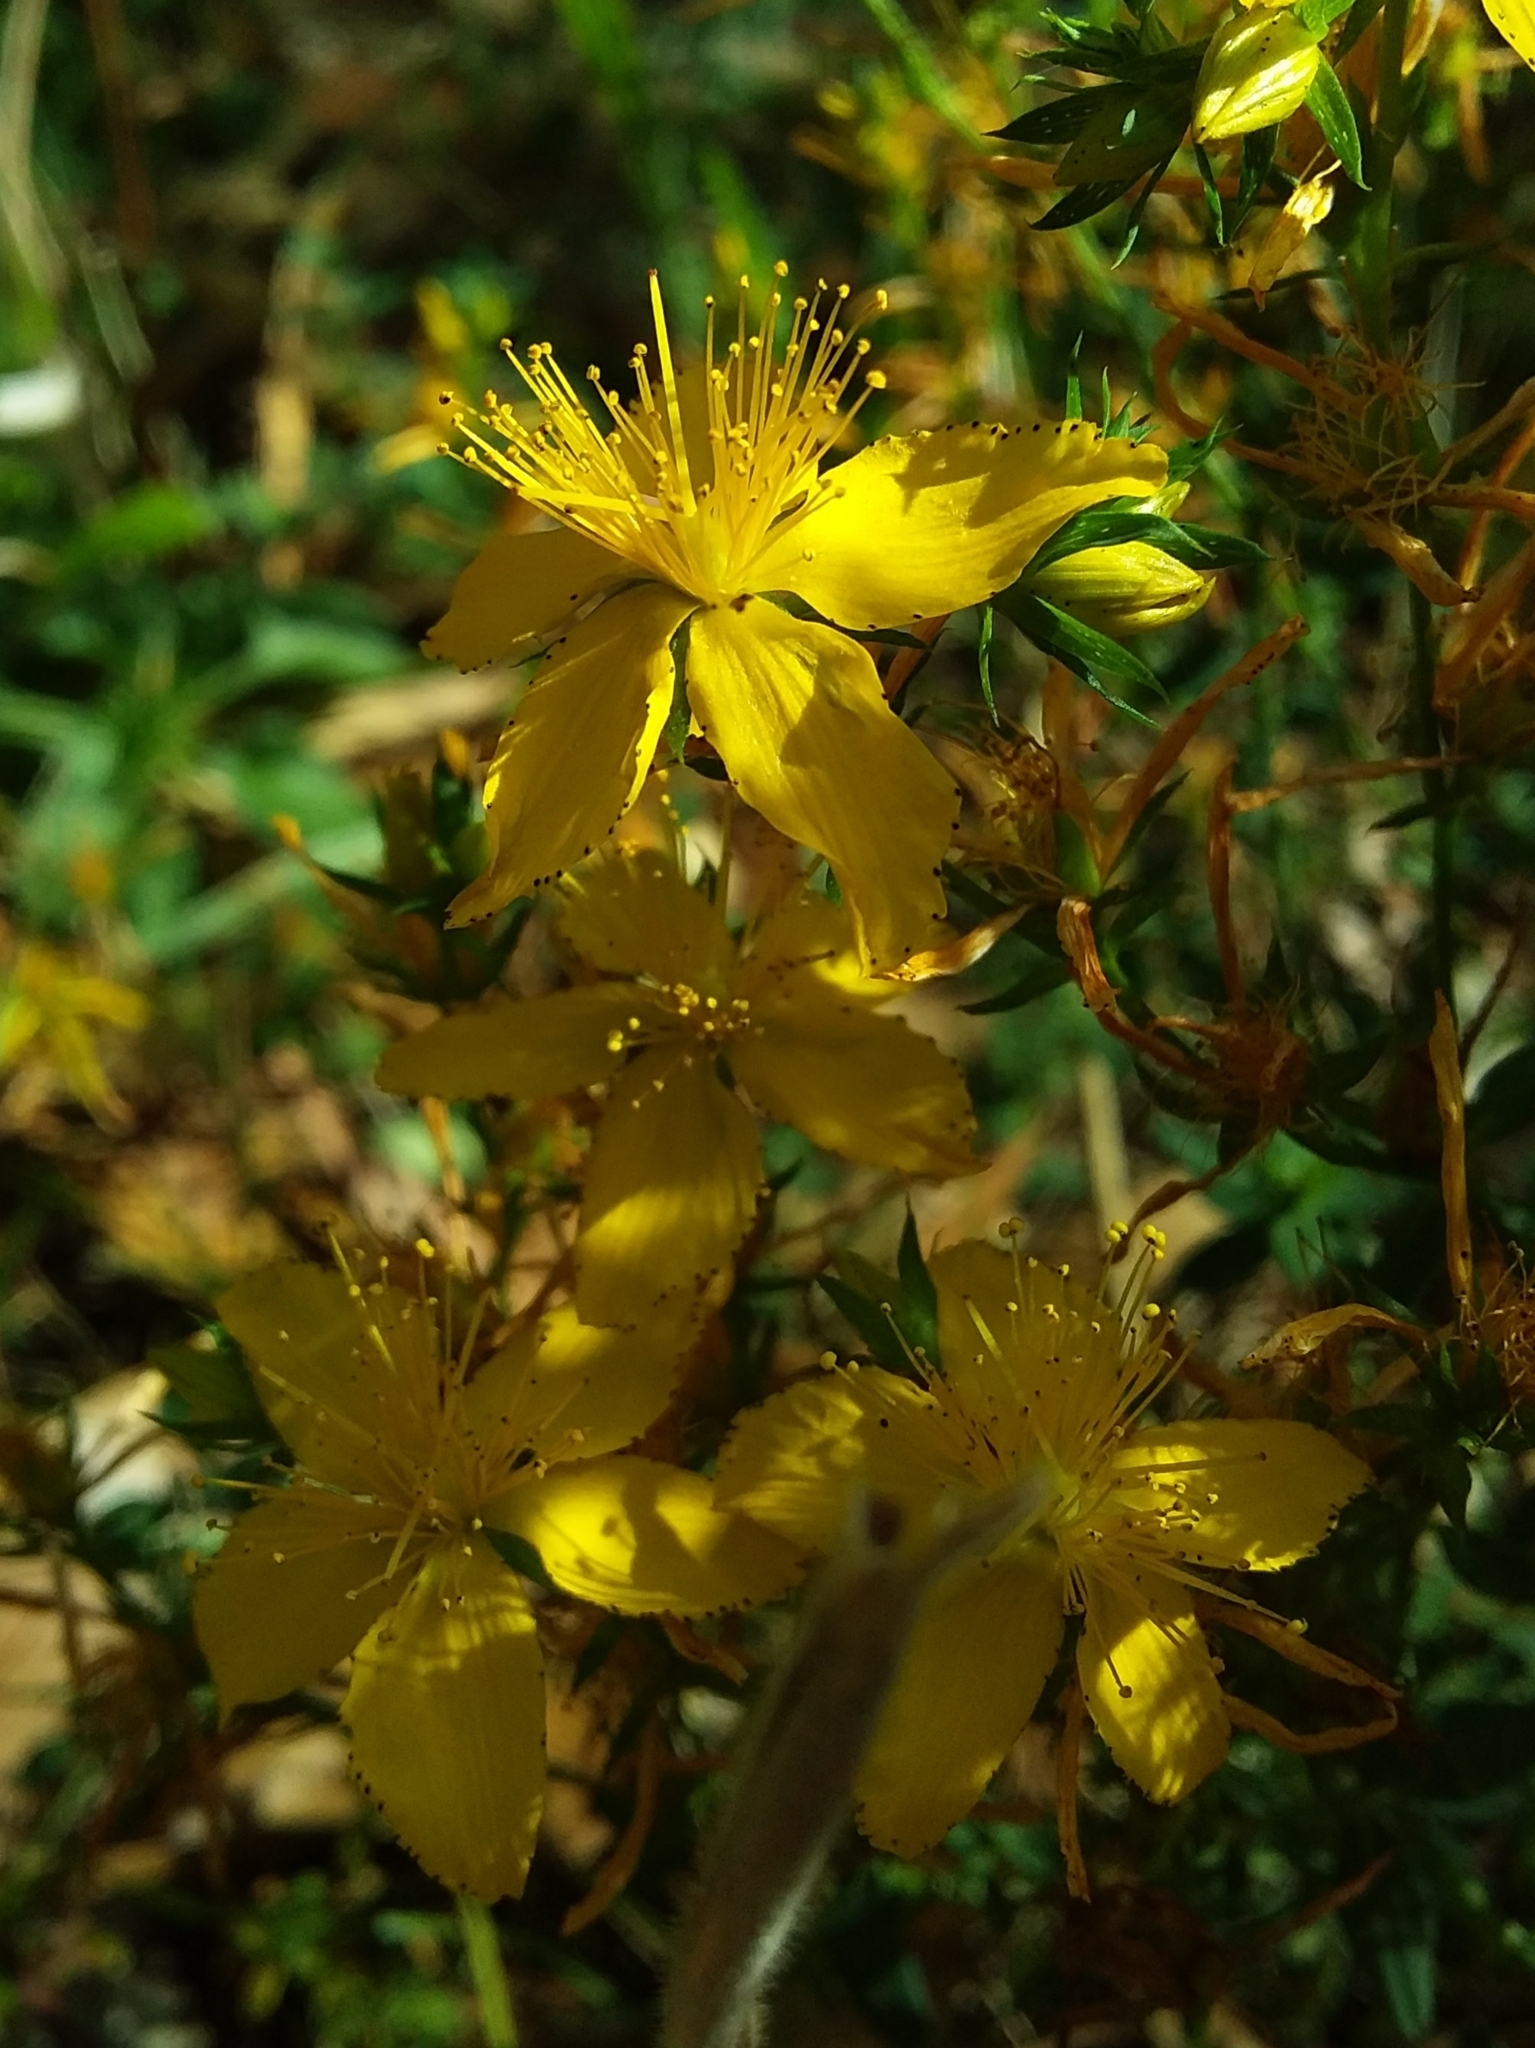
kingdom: Plantae
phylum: Tracheophyta
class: Magnoliopsida
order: Malpighiales
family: Hypericaceae
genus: Hypericum
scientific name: Hypericum perforatum
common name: Common st. johnswort
